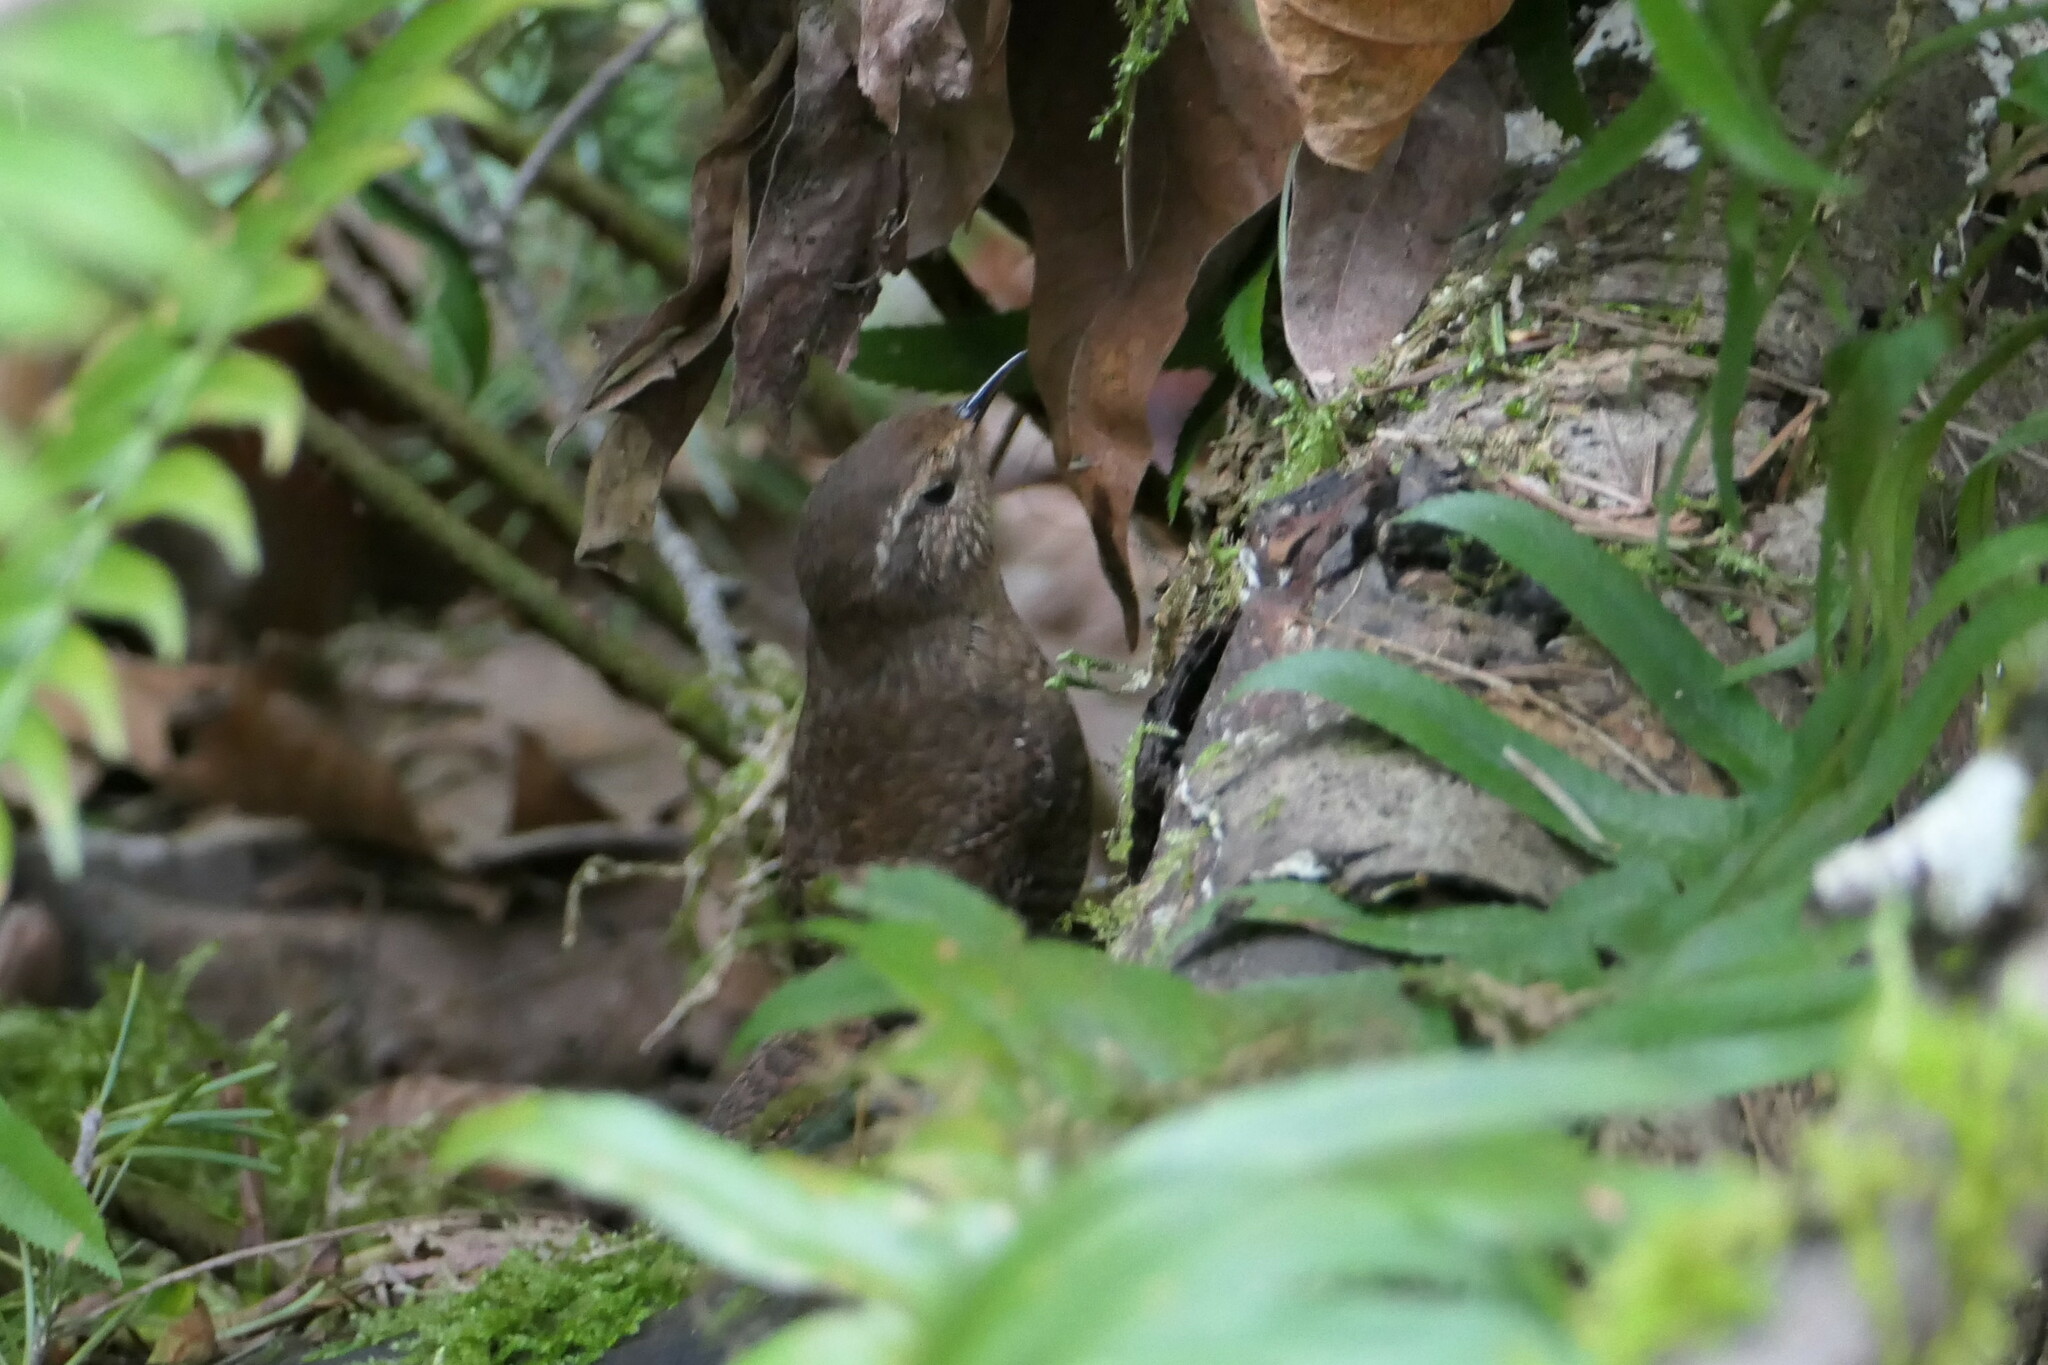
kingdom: Animalia
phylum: Chordata
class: Aves
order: Passeriformes
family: Troglodytidae
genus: Troglodytes
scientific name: Troglodytes pacificus
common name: Pacific wren
